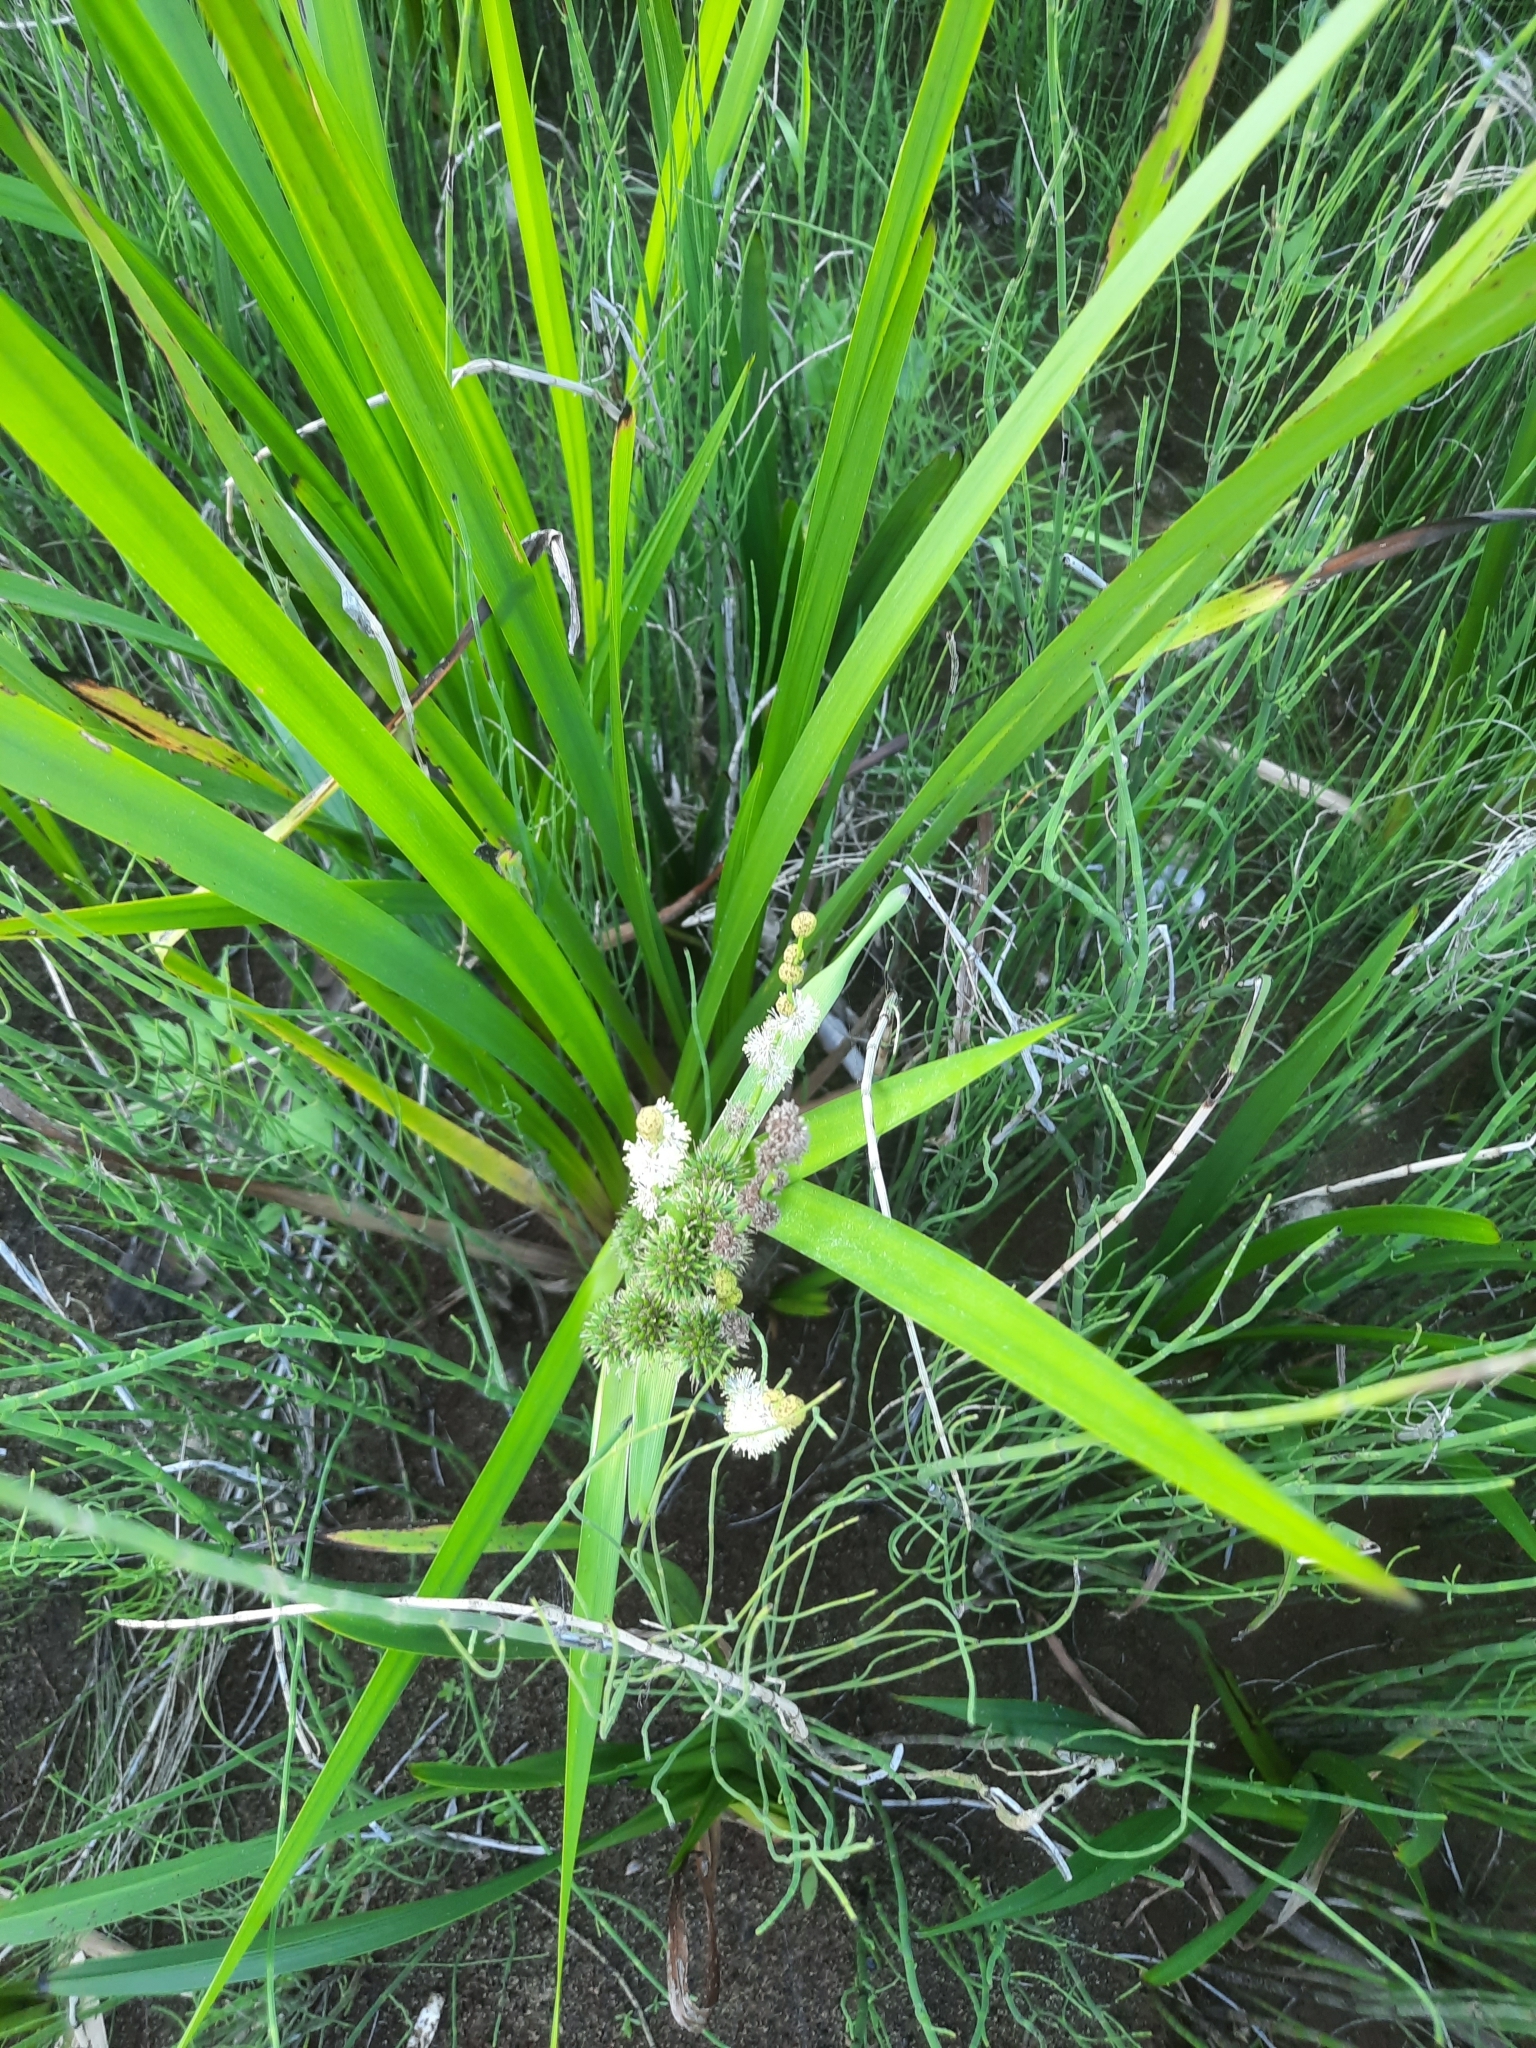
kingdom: Plantae
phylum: Tracheophyta
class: Liliopsida
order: Poales
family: Typhaceae
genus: Sparganium
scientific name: Sparganium erectum
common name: Branched bur-reed
